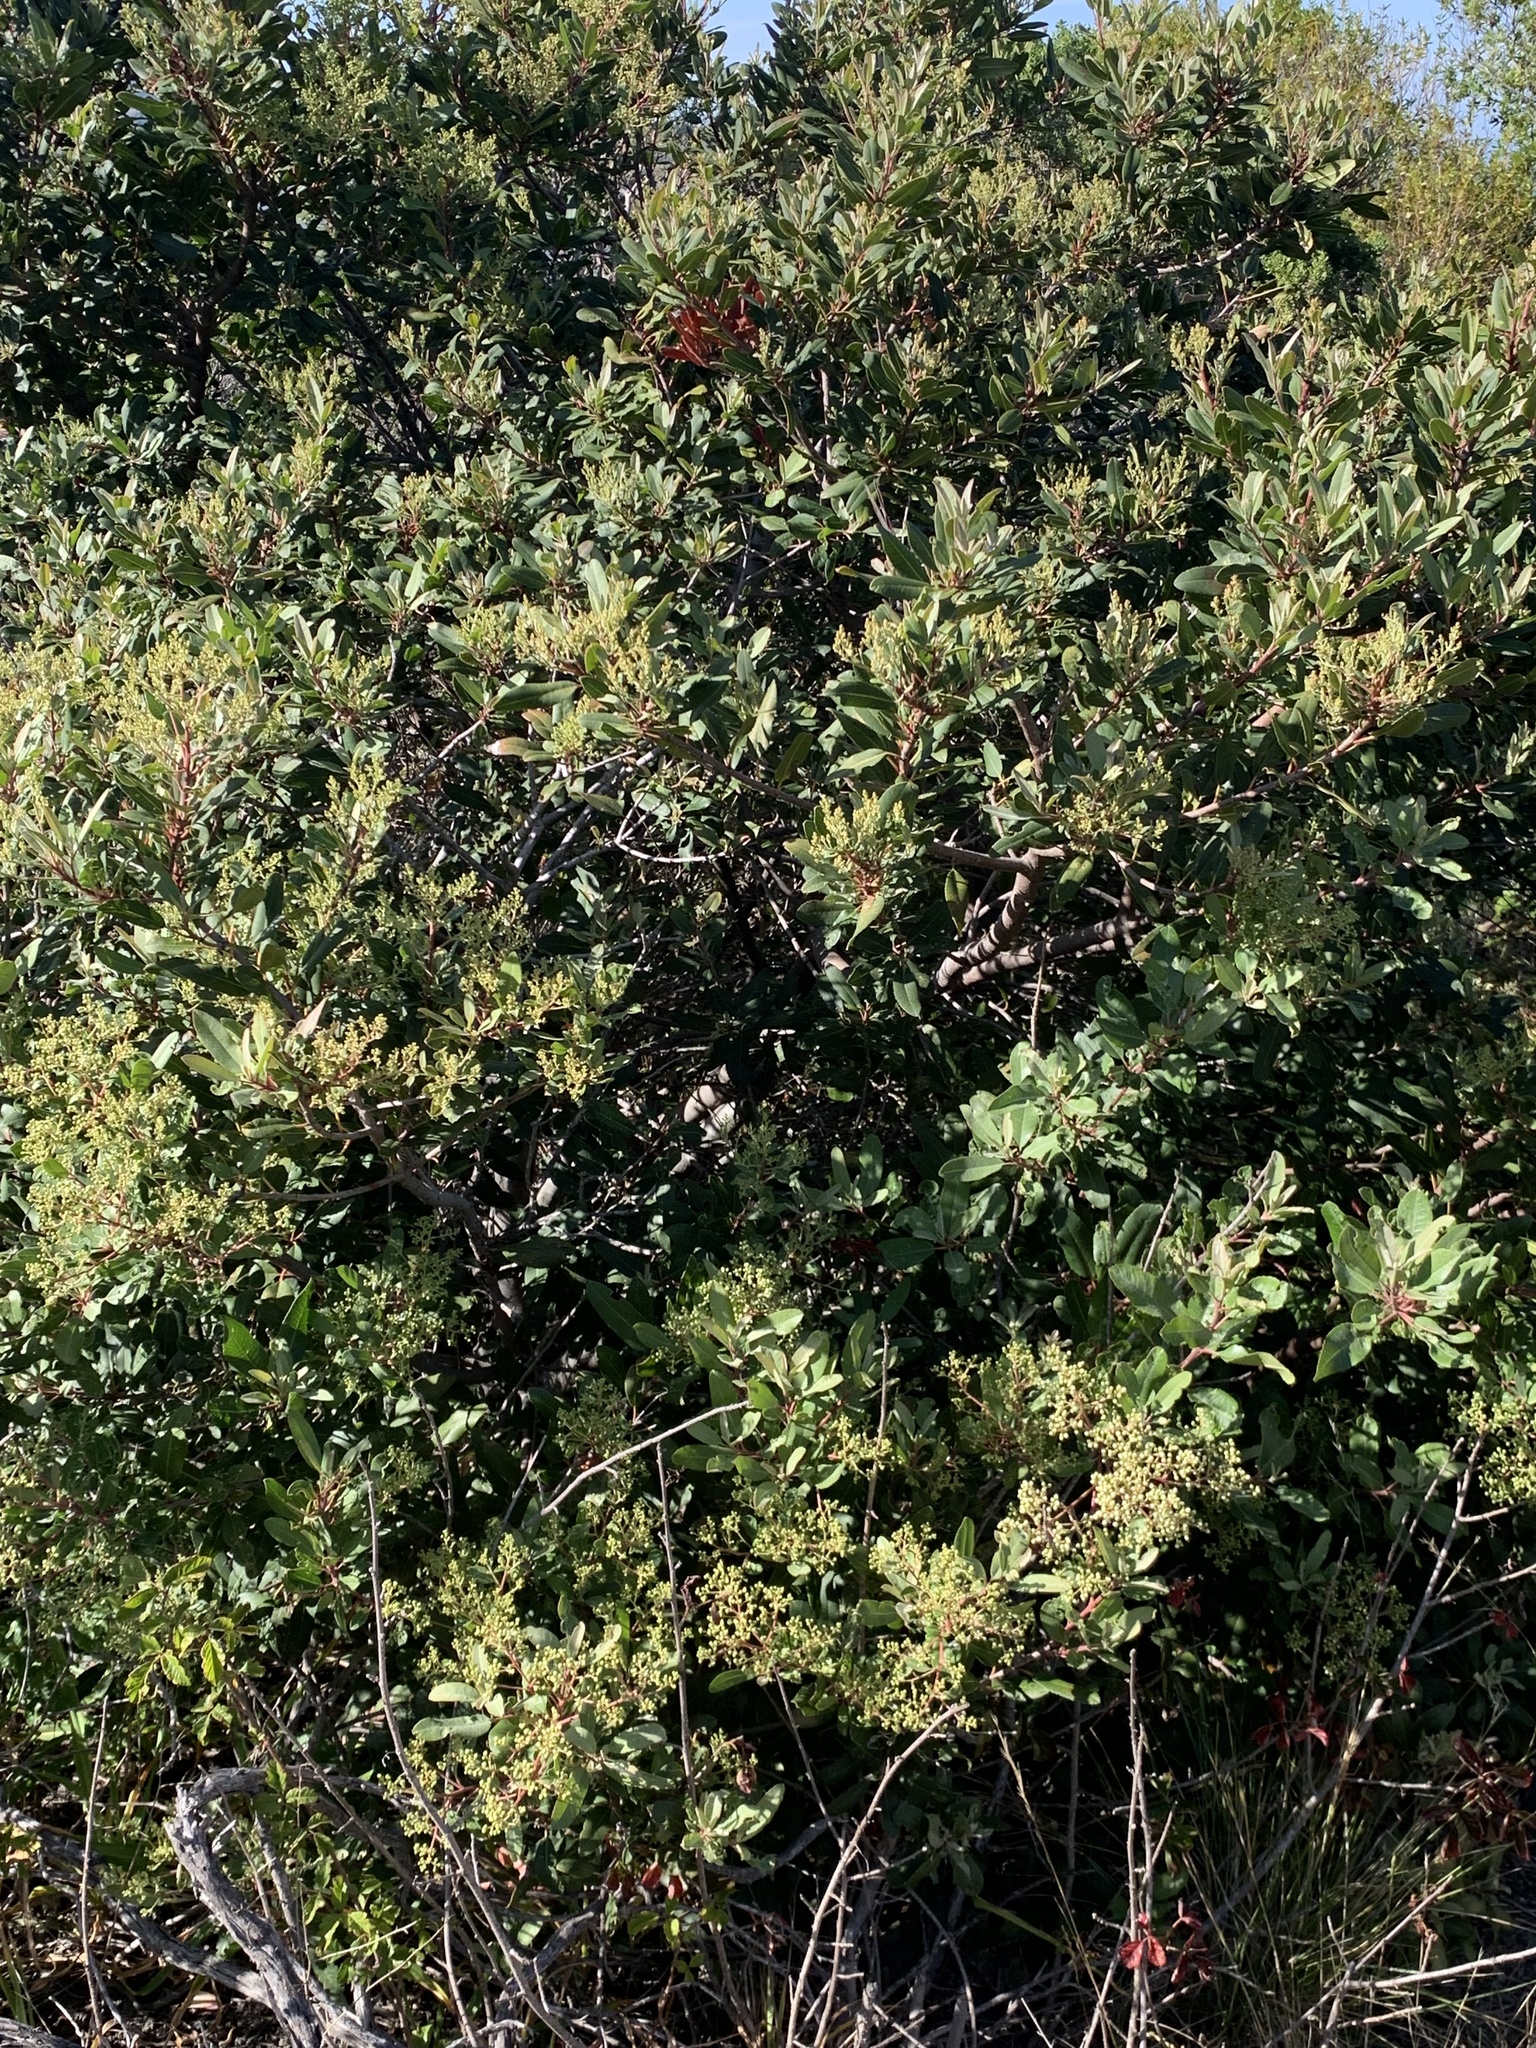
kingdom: Plantae
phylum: Tracheophyta
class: Magnoliopsida
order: Rosales
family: Rosaceae
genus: Heteromeles
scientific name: Heteromeles arbutifolia
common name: California-holly
